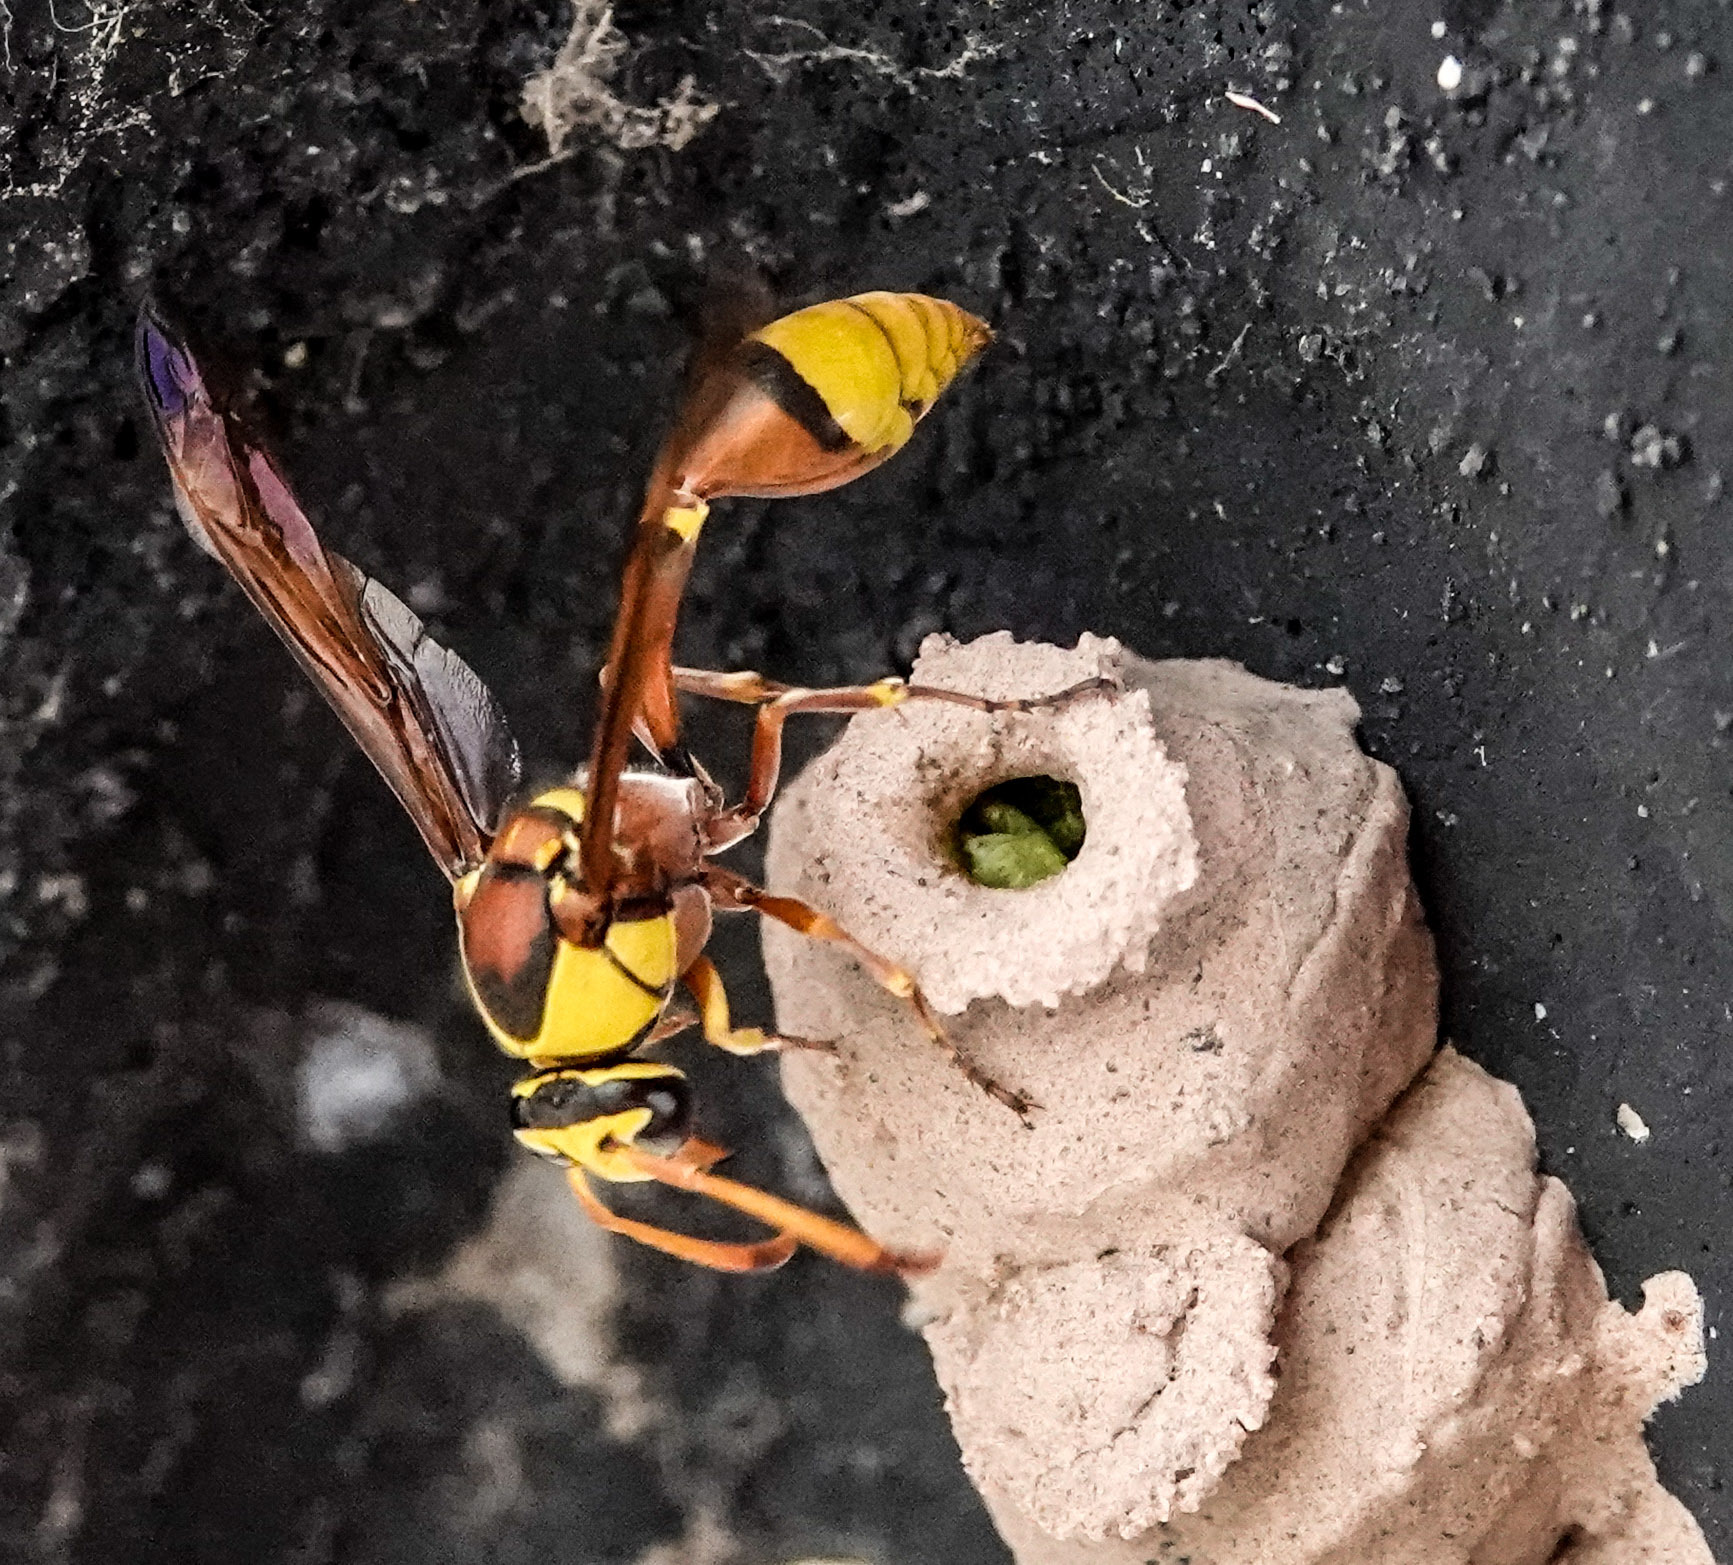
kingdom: Animalia
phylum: Arthropoda
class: Insecta
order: Hymenoptera
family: Eumenidae
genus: Delta
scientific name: Delta esuriens
